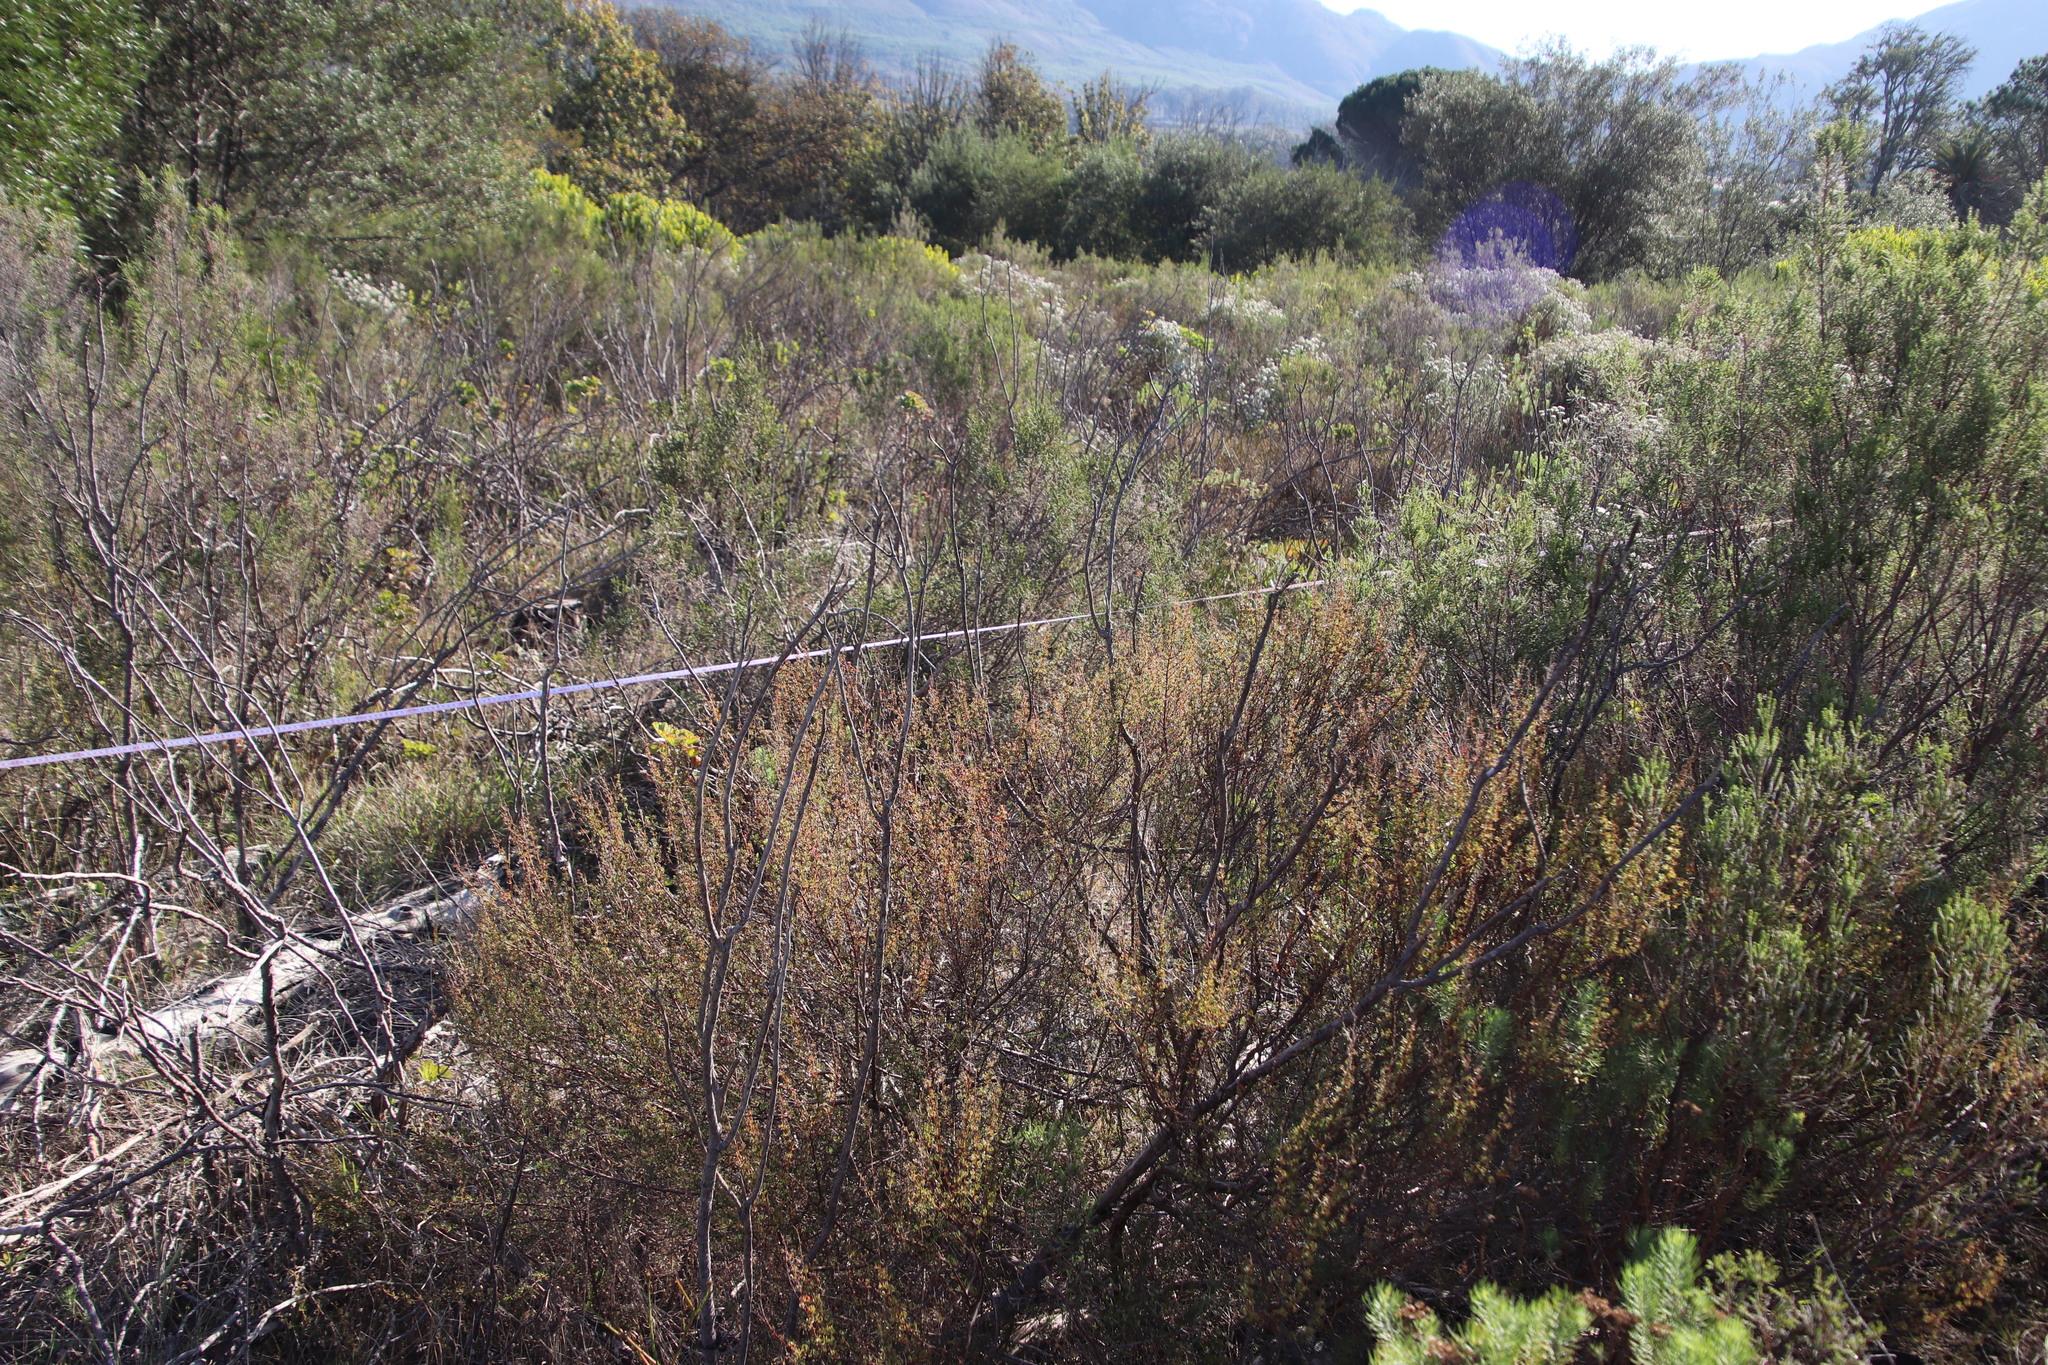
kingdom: Plantae
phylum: Tracheophyta
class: Magnoliopsida
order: Rosales
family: Rosaceae
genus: Cliffortia
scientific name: Cliffortia falcata
